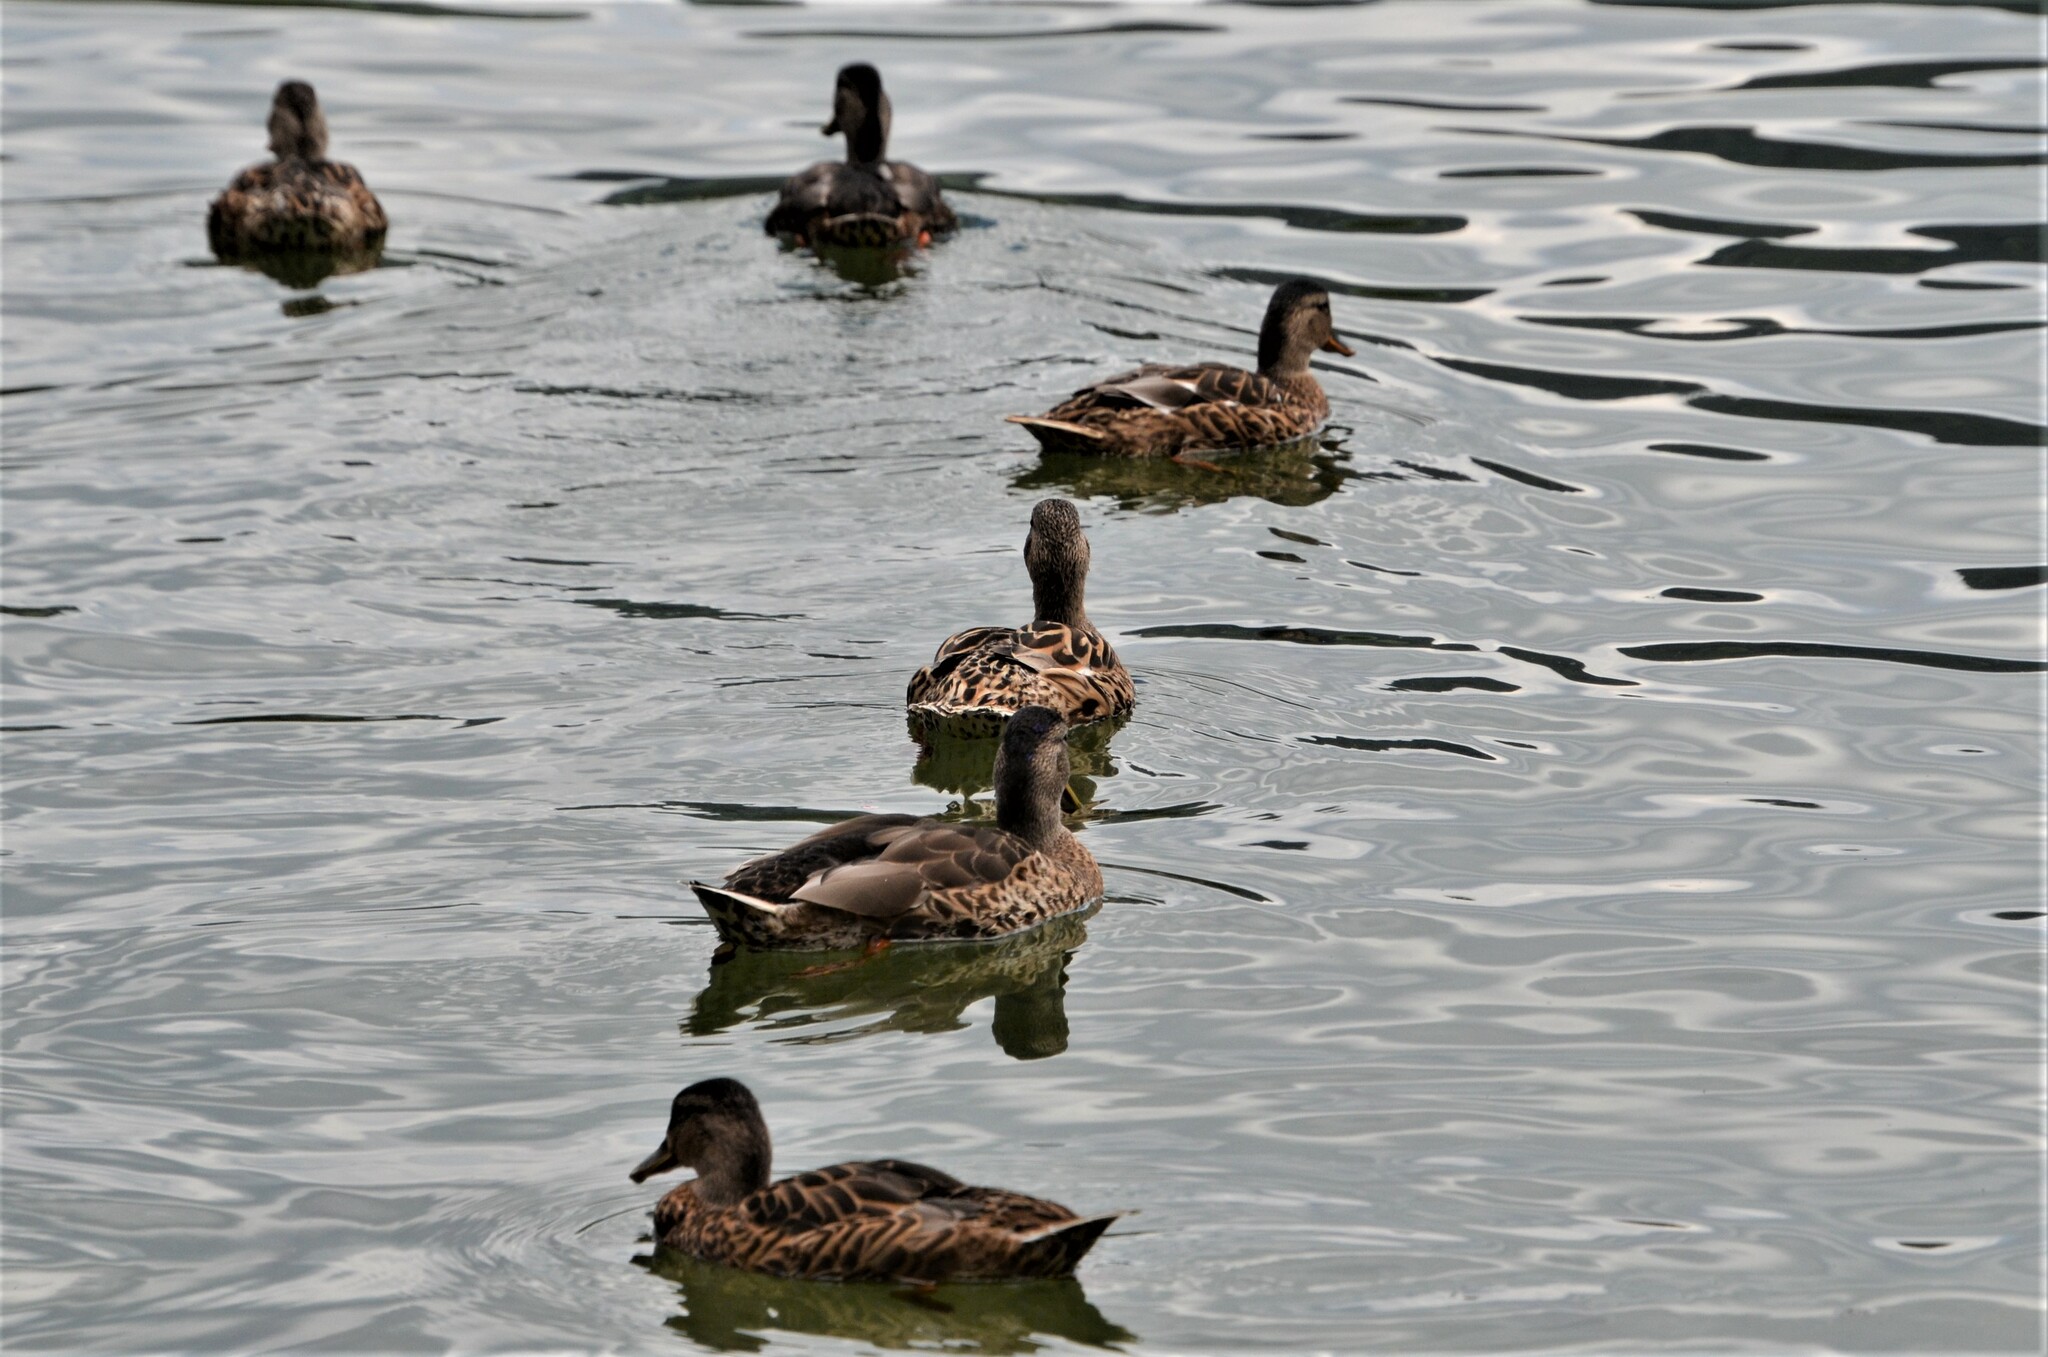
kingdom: Animalia
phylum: Chordata
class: Aves
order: Anseriformes
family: Anatidae
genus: Anas
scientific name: Anas platyrhynchos
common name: Mallard
